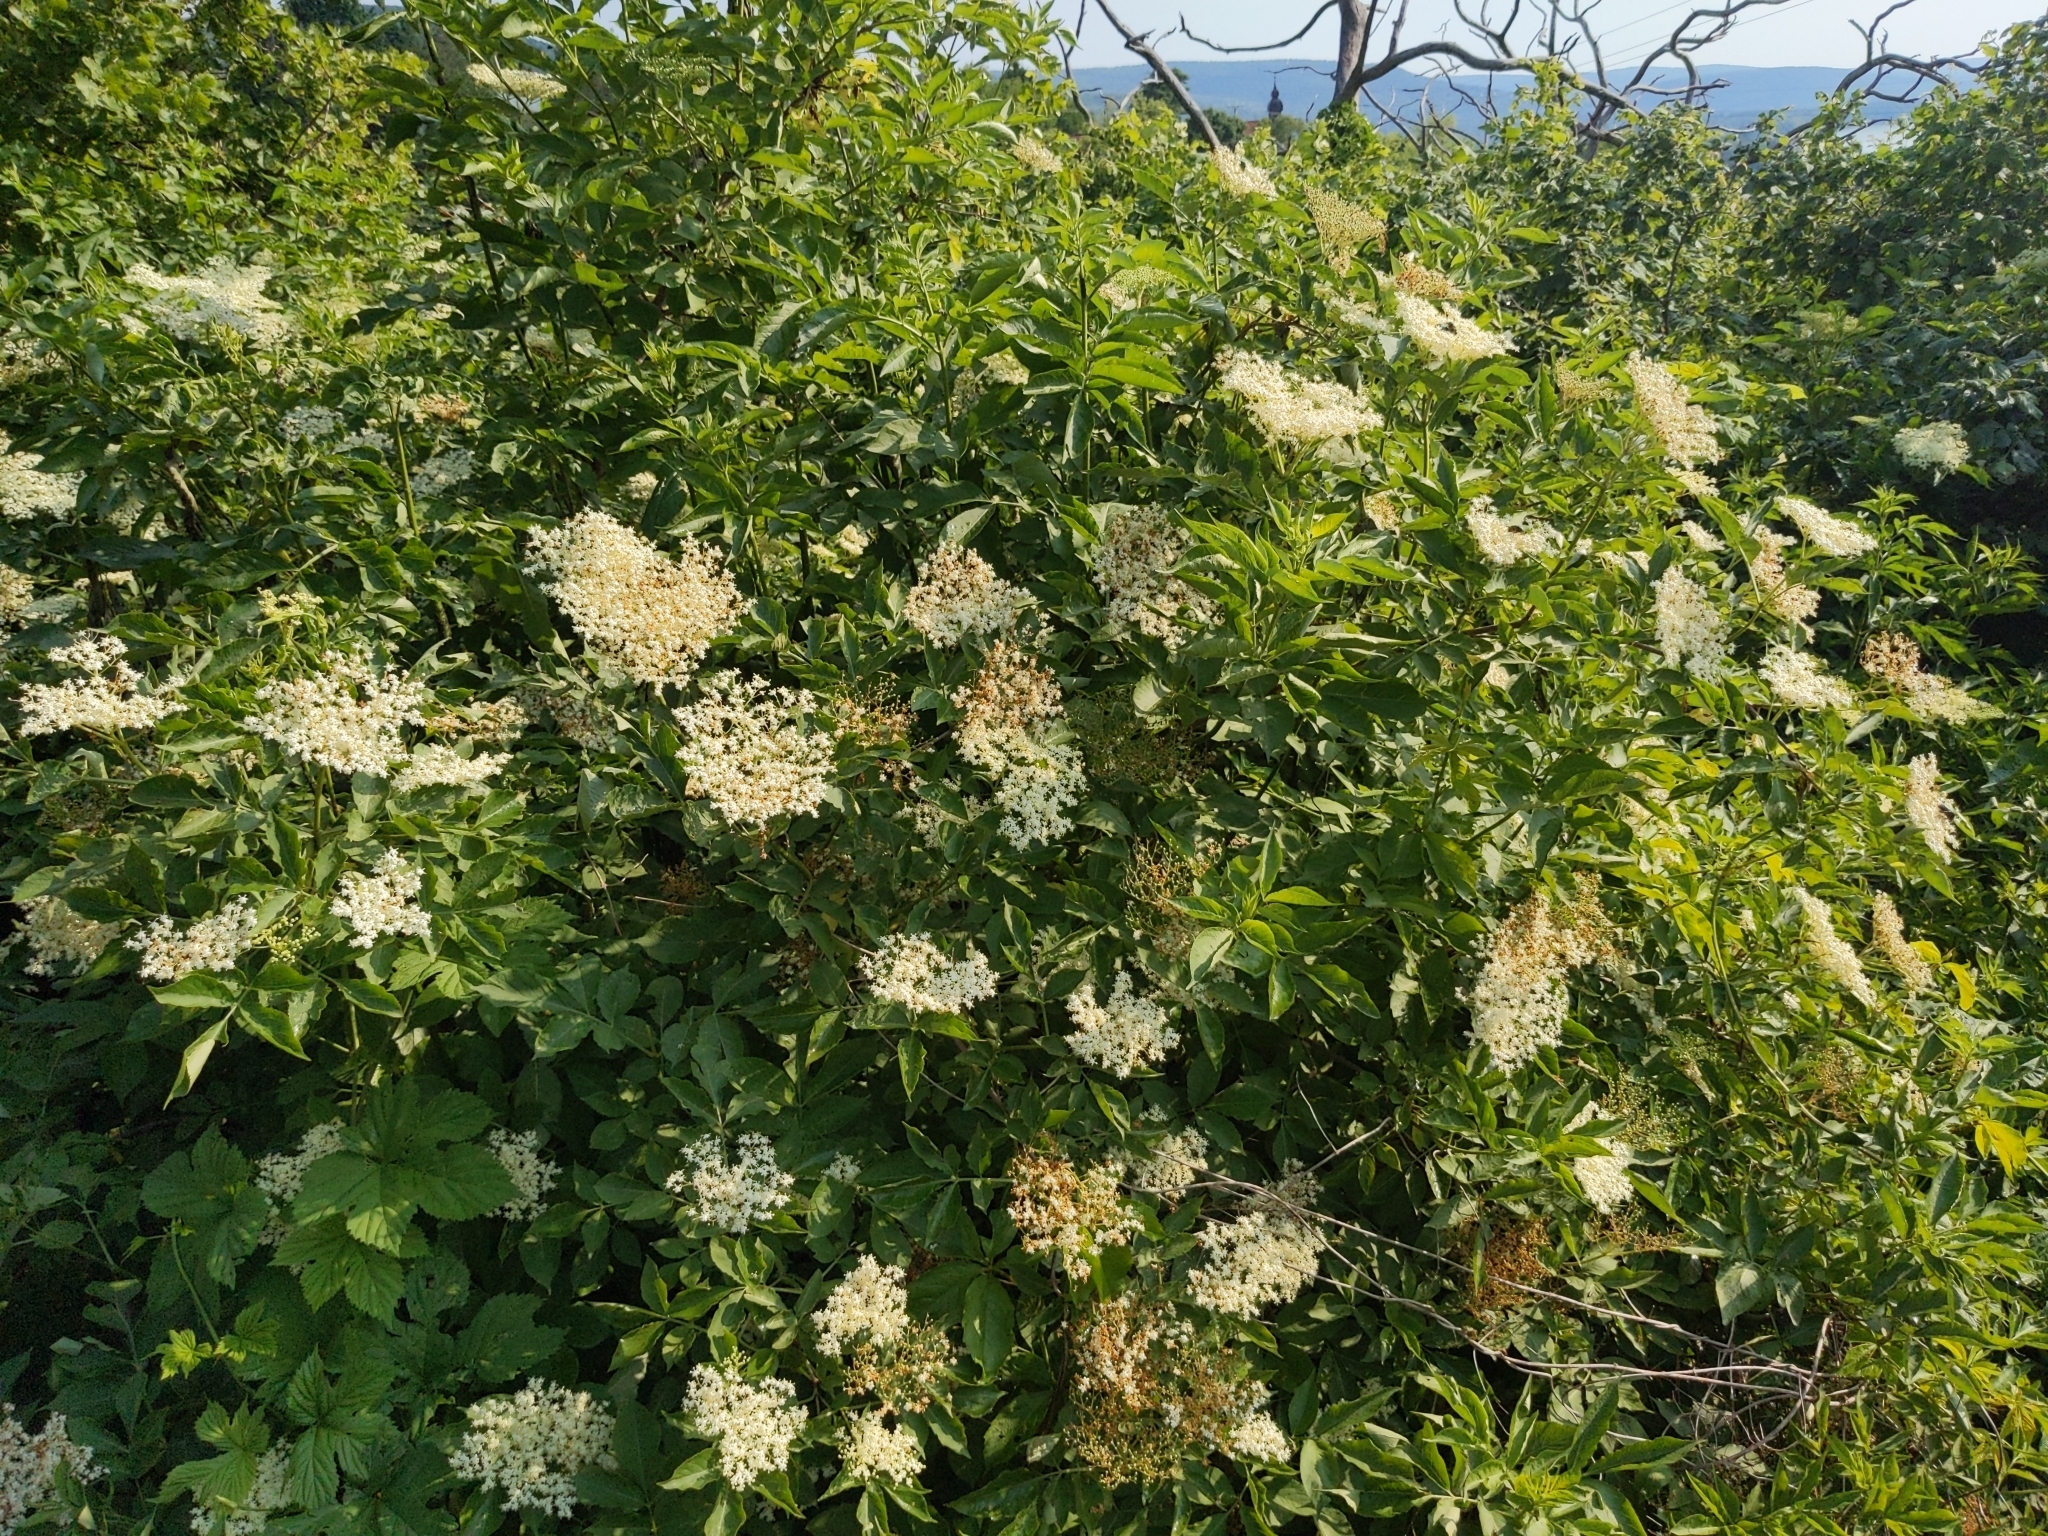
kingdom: Plantae
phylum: Tracheophyta
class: Magnoliopsida
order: Dipsacales
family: Viburnaceae
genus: Sambucus
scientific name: Sambucus nigra
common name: Elder
